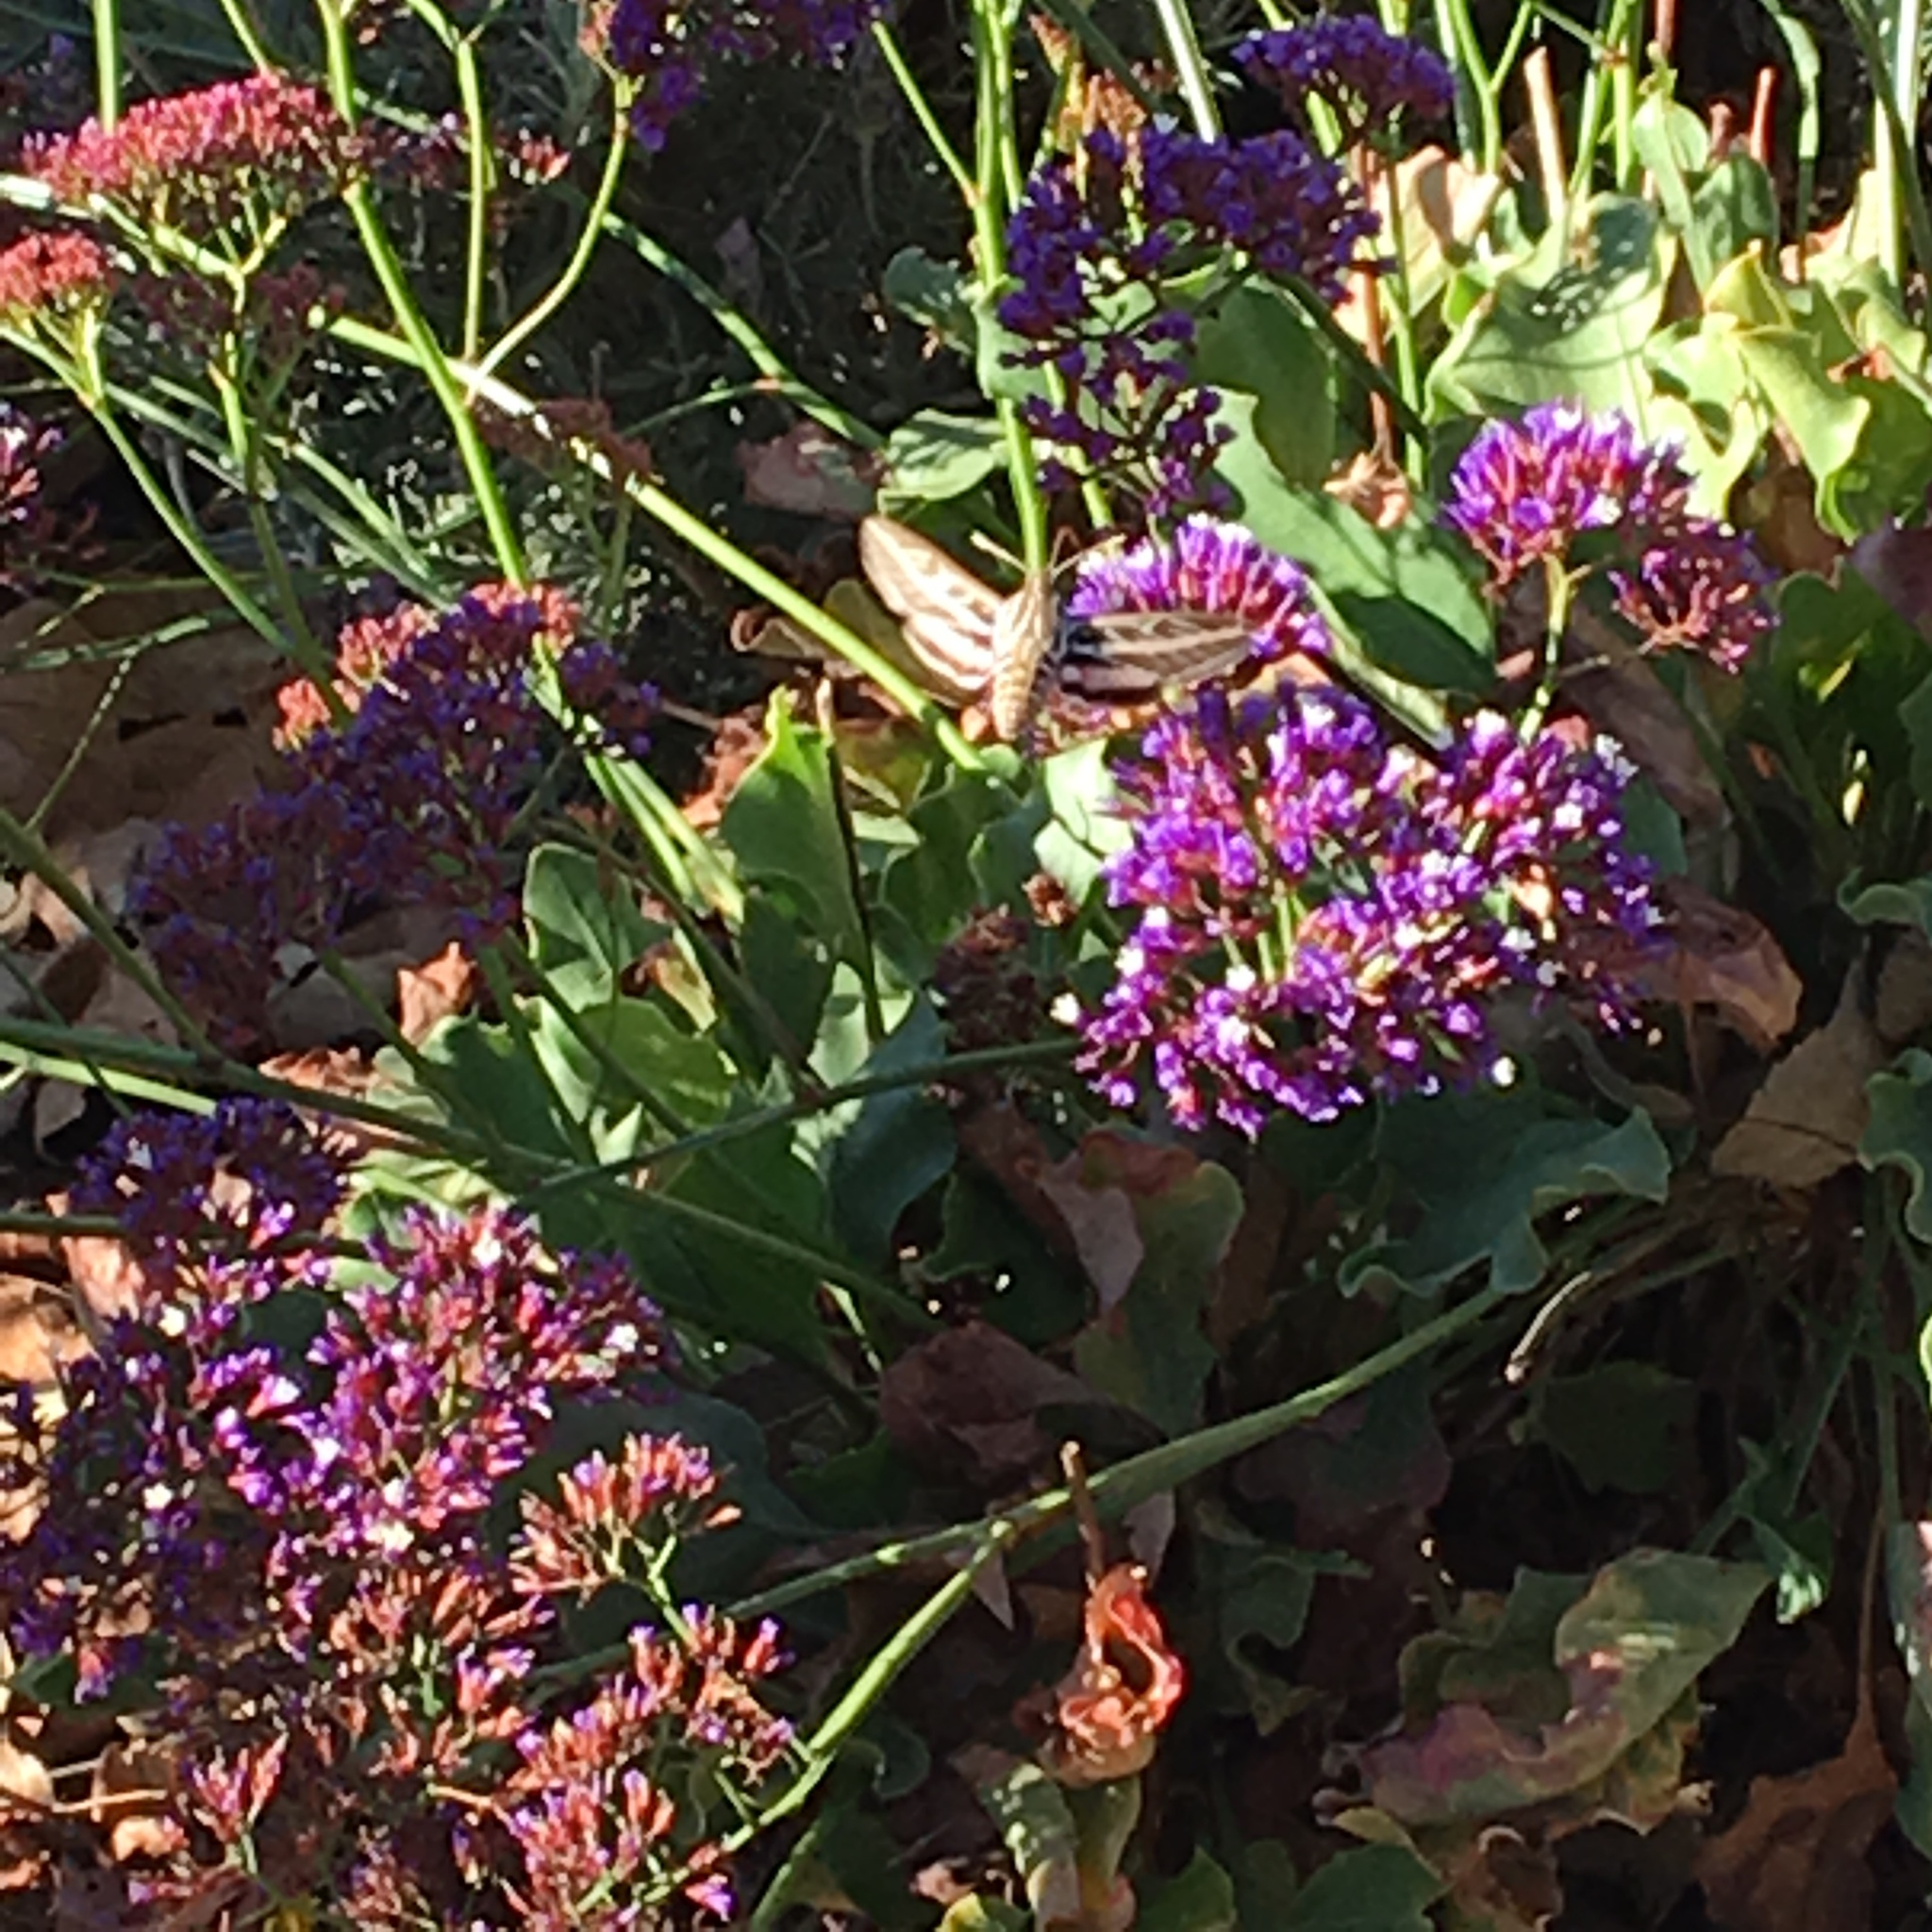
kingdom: Animalia
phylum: Arthropoda
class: Insecta
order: Lepidoptera
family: Sphingidae
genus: Hyles
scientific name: Hyles lineata
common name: White-lined sphinx
